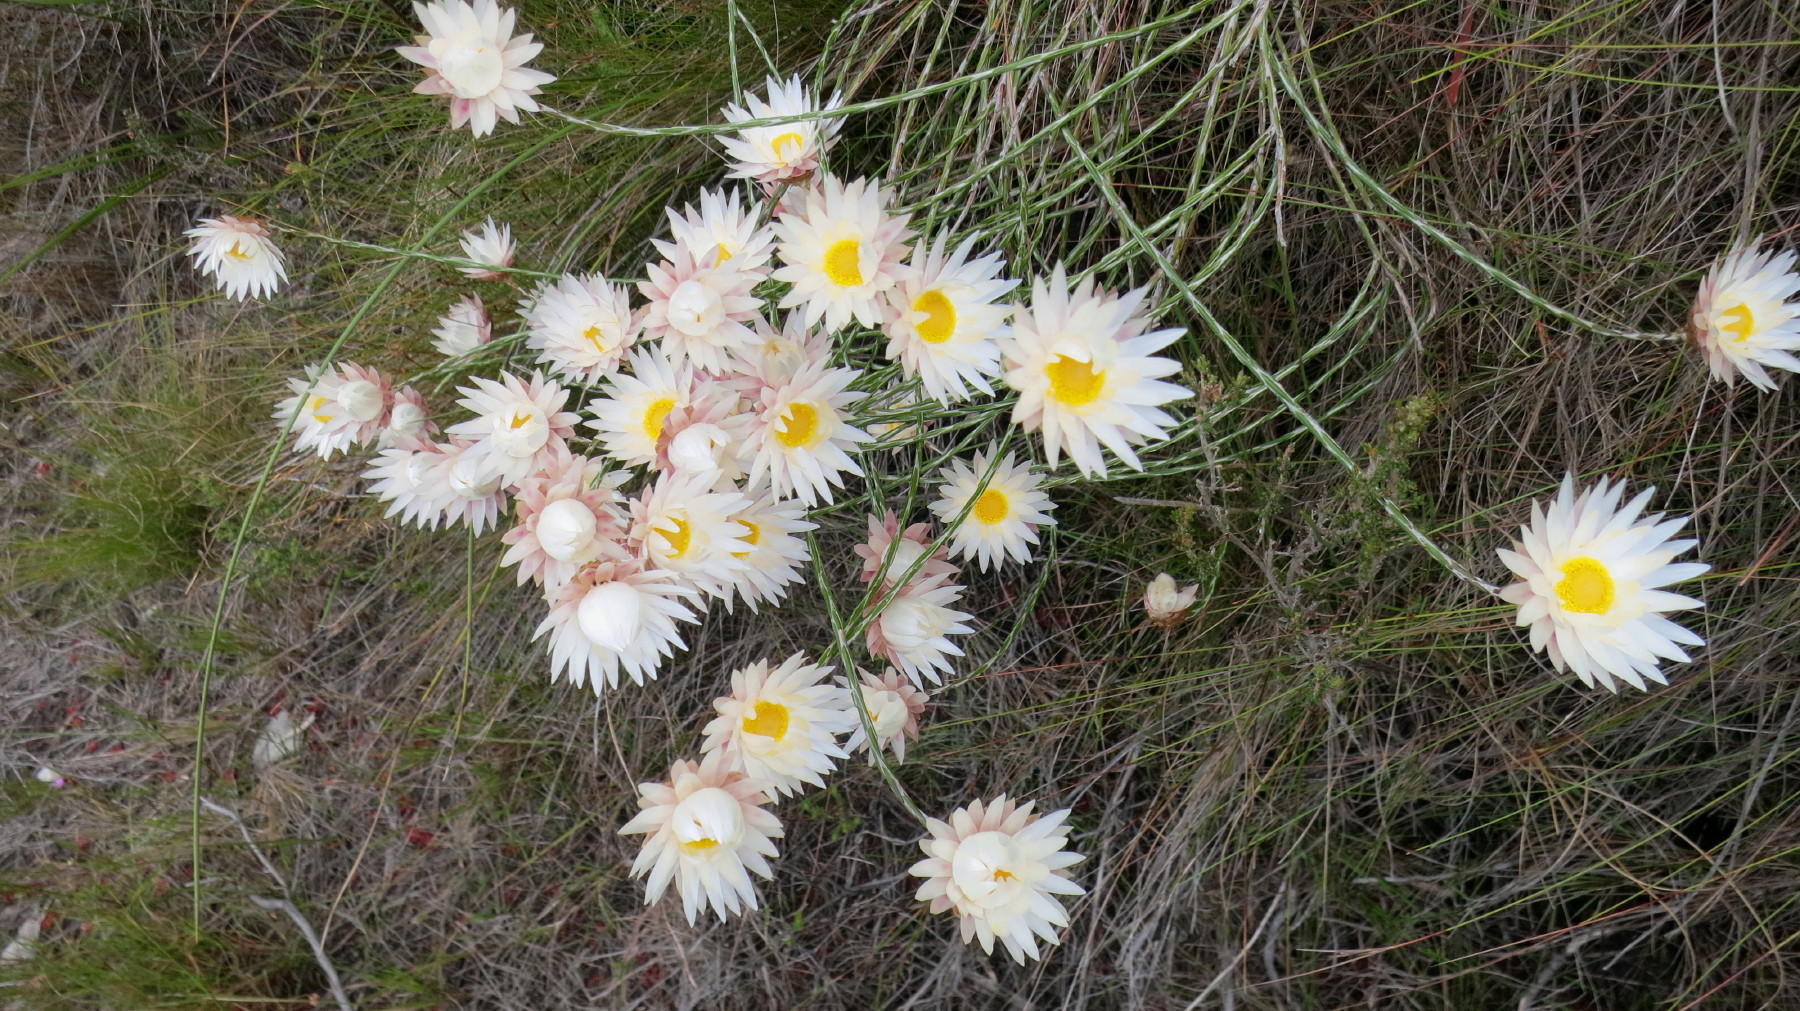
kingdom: Plantae
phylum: Tracheophyta
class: Magnoliopsida
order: Asterales
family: Asteraceae
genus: Edmondia
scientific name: Edmondia sesamoides
